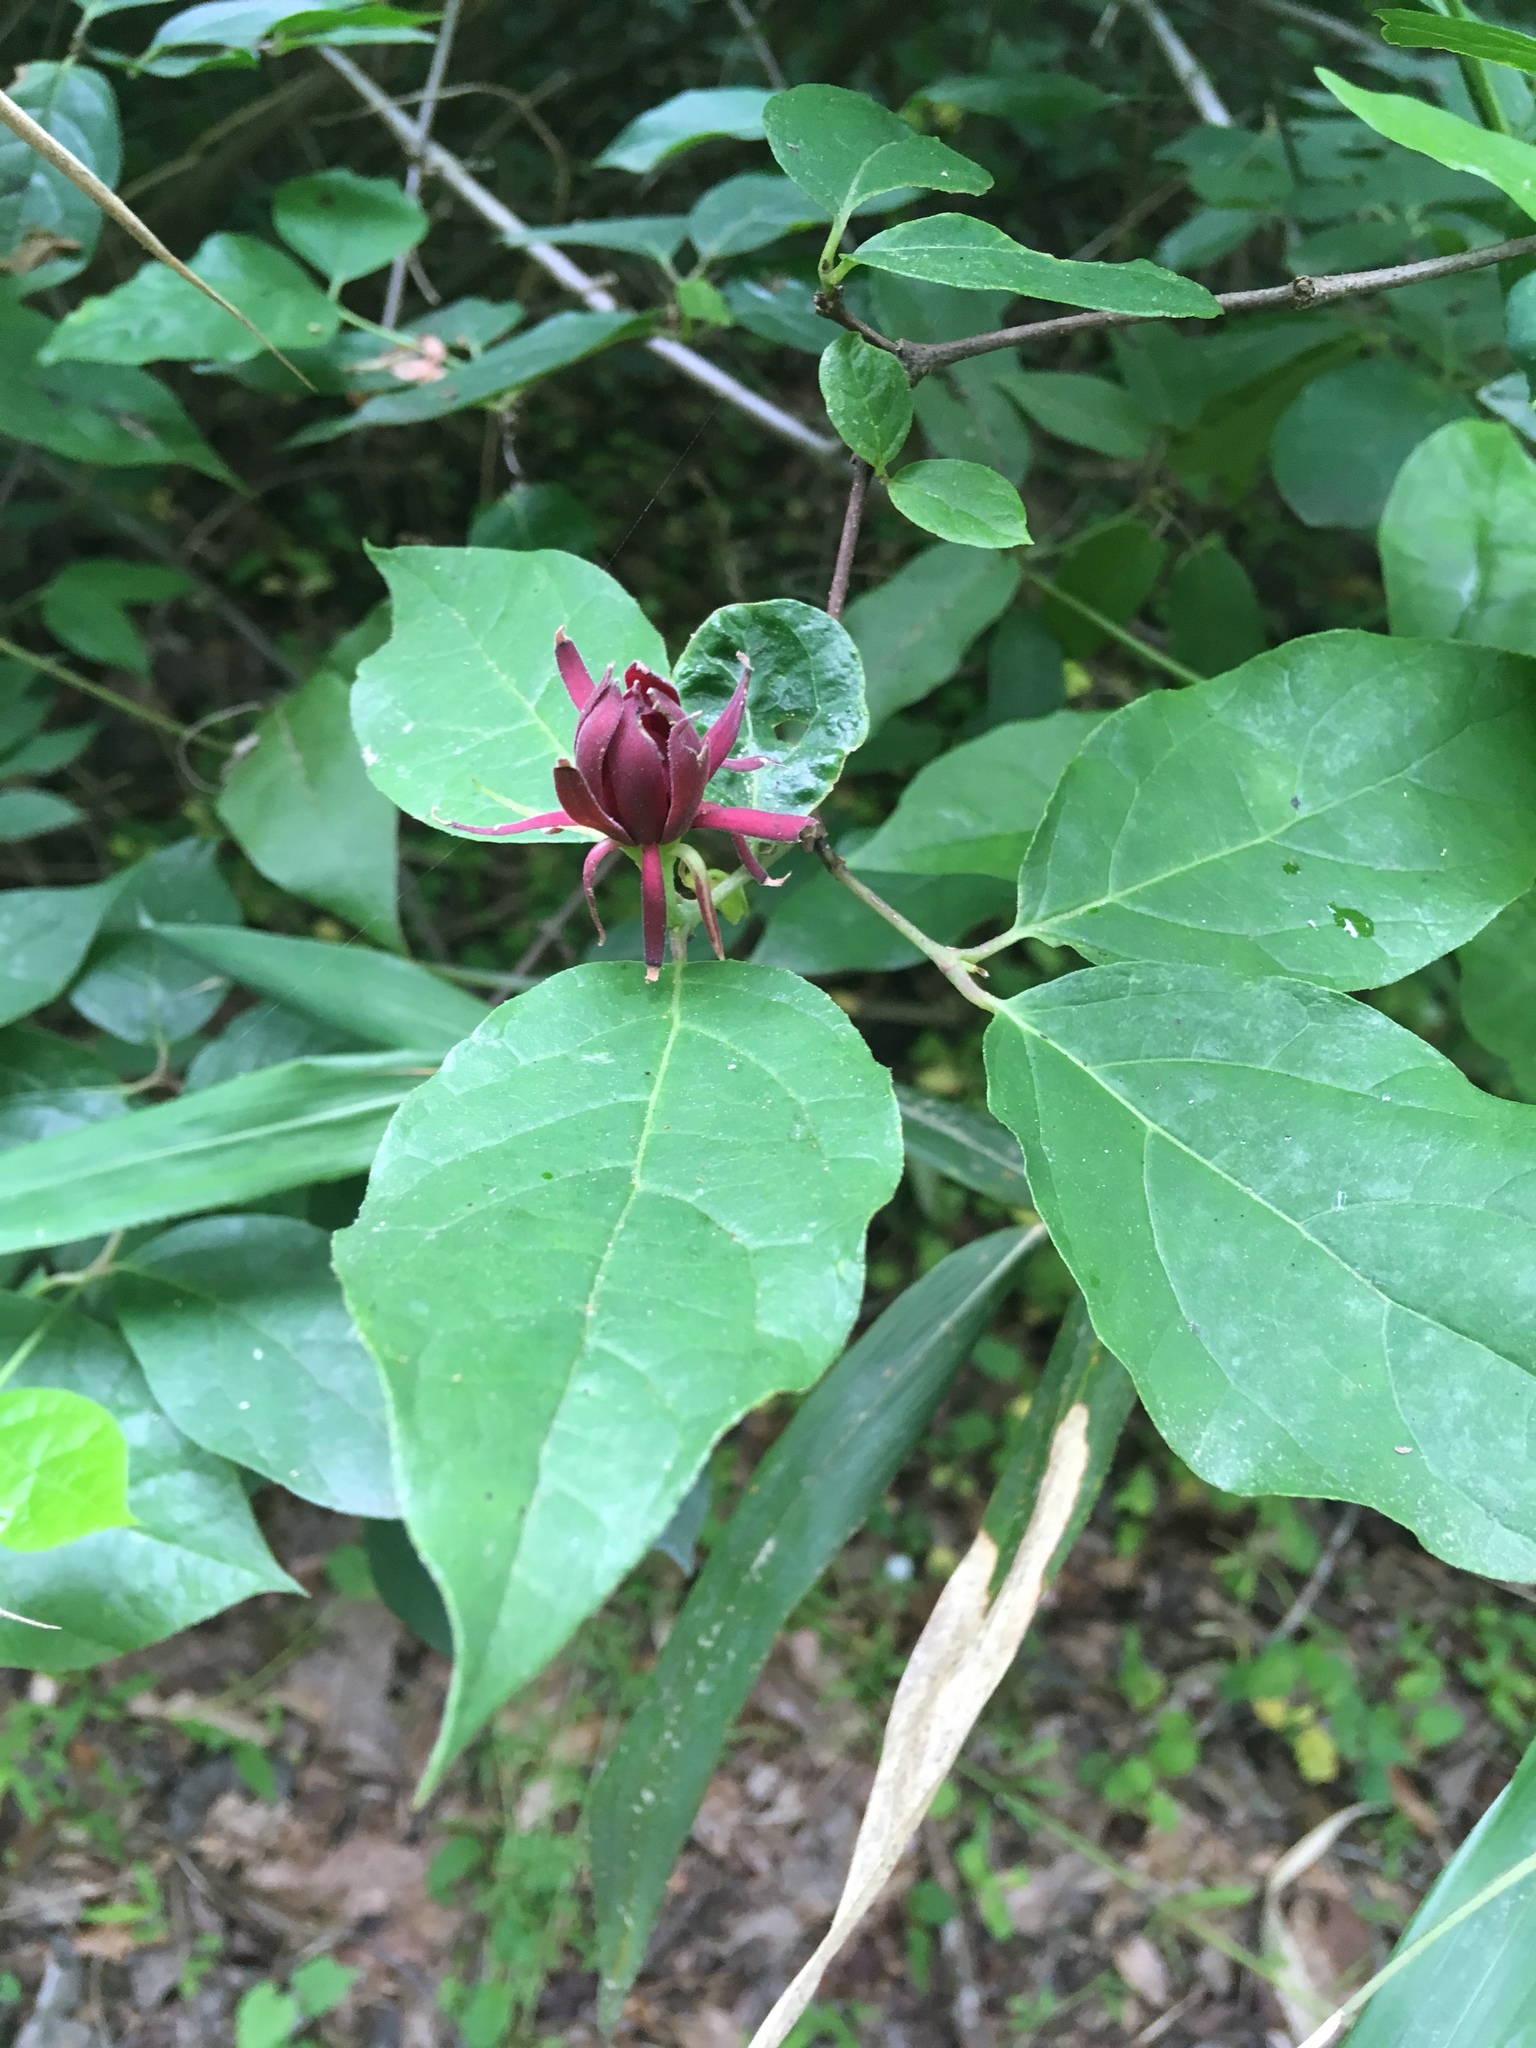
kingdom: Plantae
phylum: Tracheophyta
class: Magnoliopsida
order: Laurales
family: Calycanthaceae
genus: Calycanthus
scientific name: Calycanthus floridus
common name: Carolina-allspice
